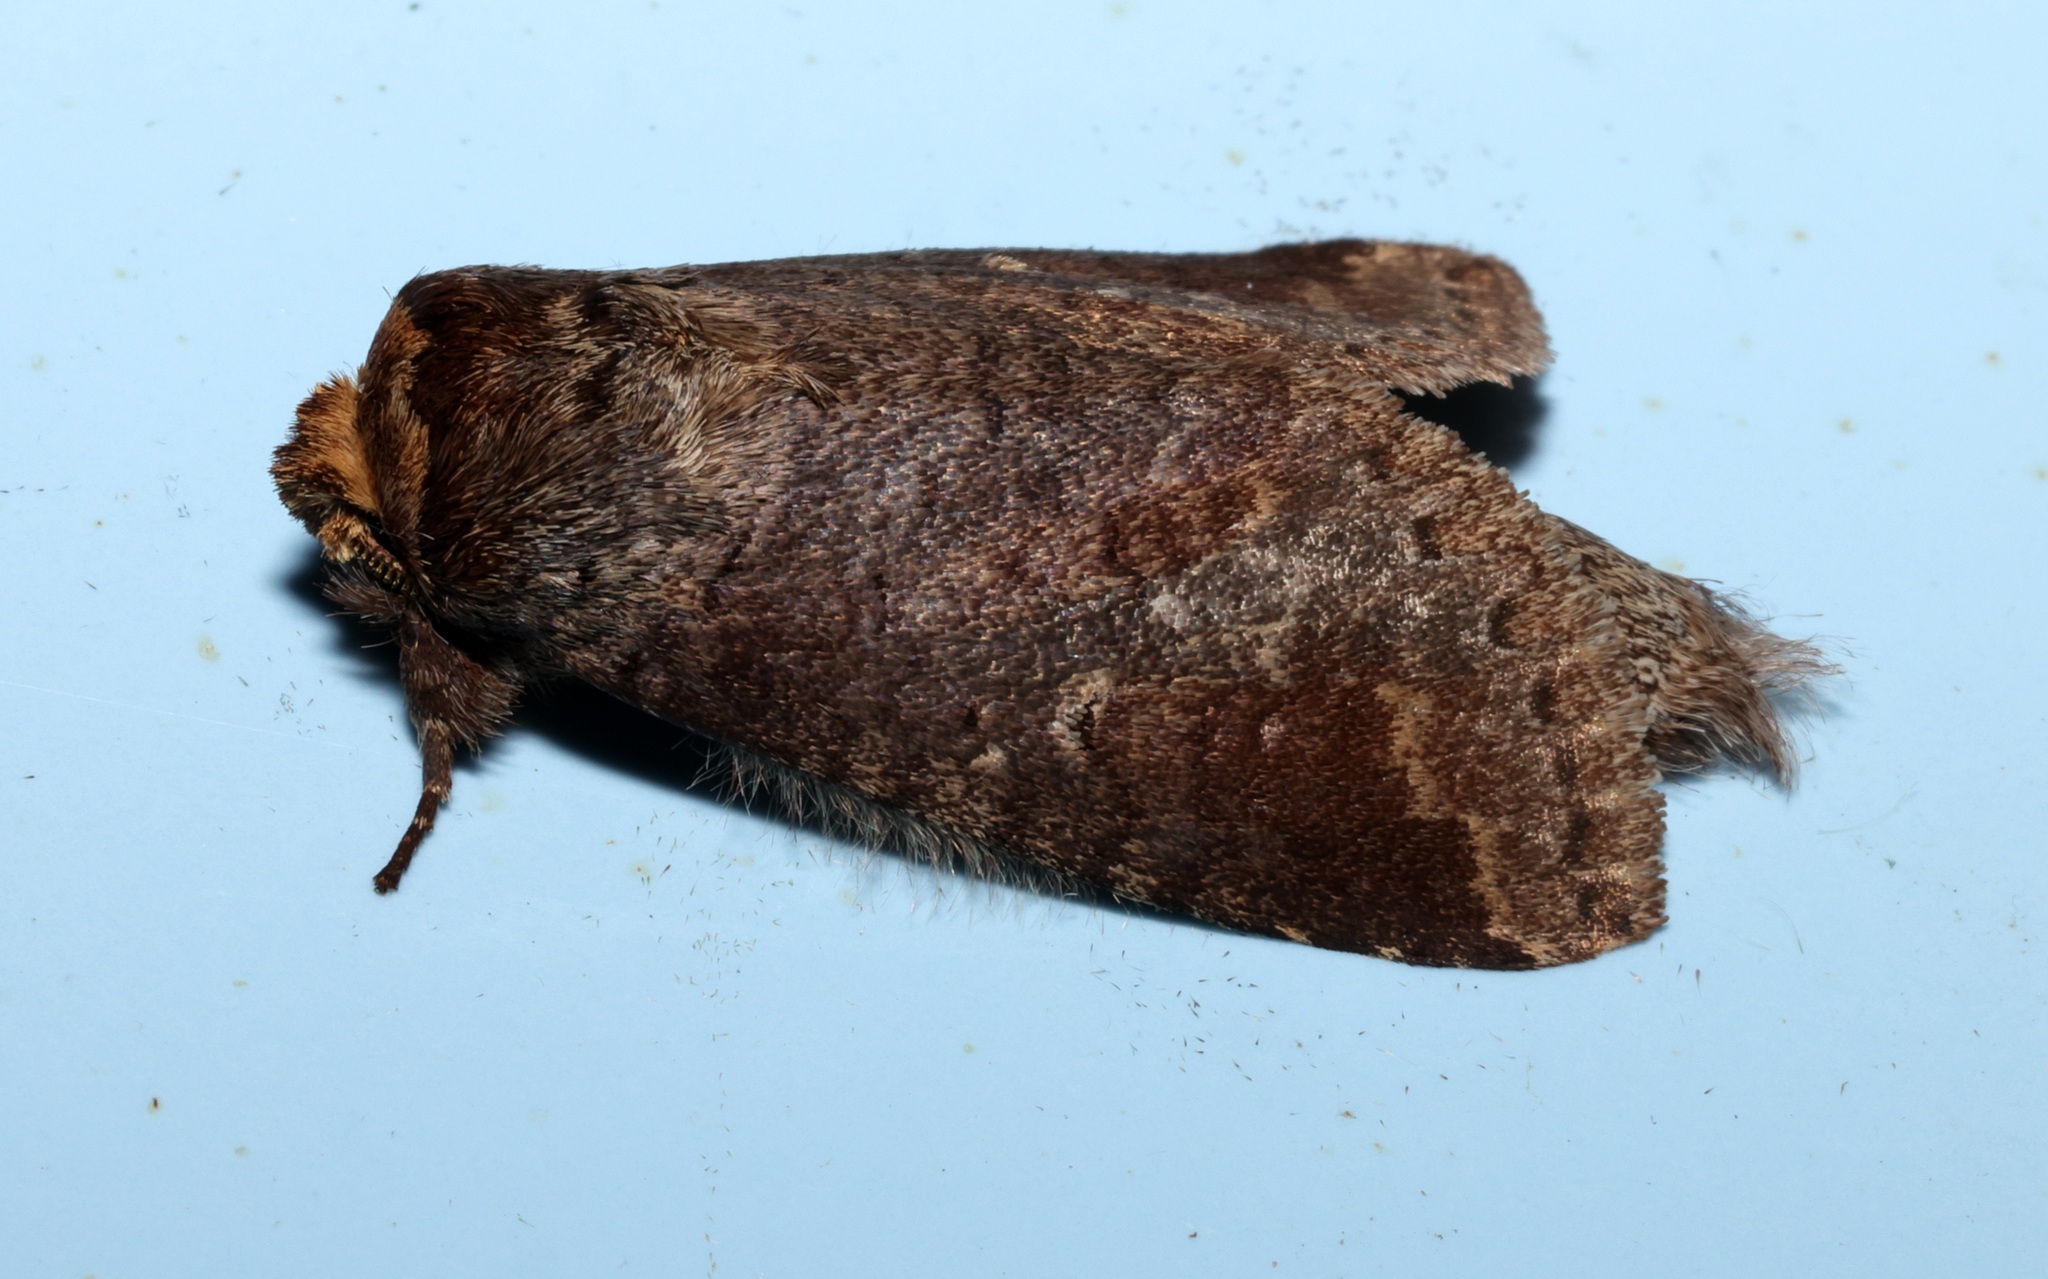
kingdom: Animalia
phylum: Arthropoda
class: Insecta
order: Lepidoptera
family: Notodontidae
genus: Neodrymonia
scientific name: Neodrymonia filix
